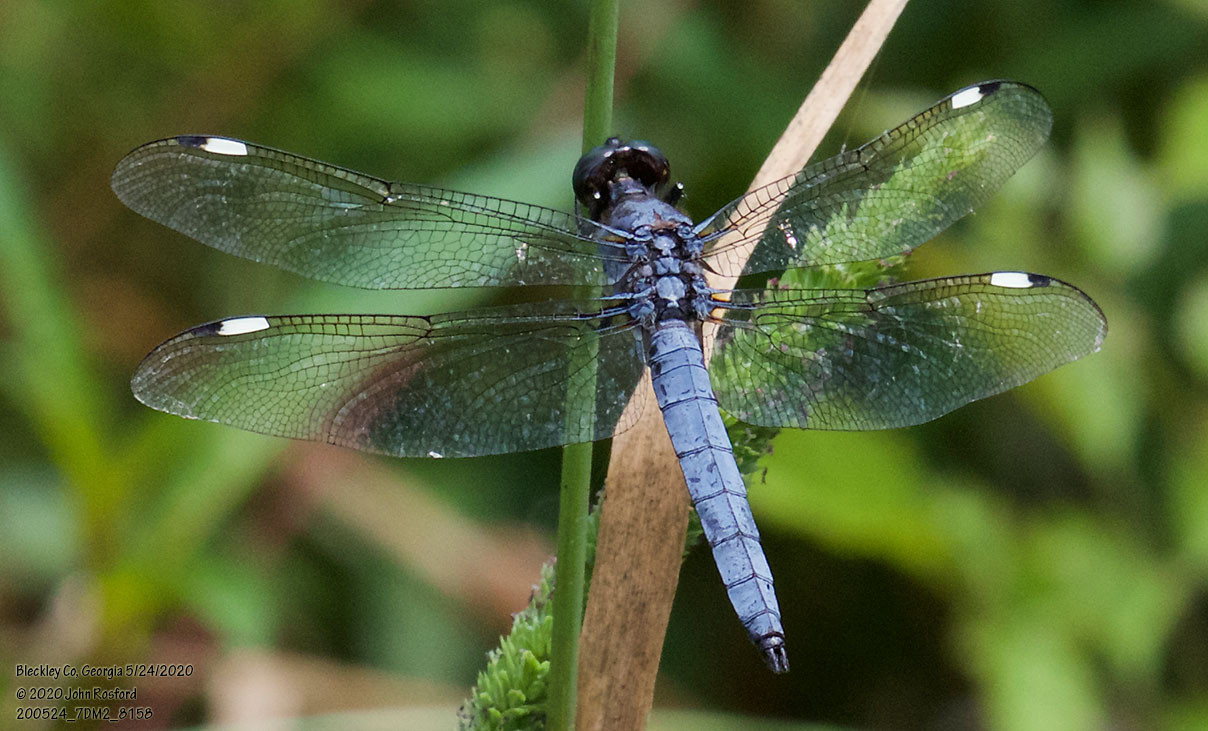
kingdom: Animalia
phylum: Arthropoda
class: Insecta
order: Odonata
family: Libellulidae
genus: Libellula
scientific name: Libellula cyanea
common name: Spangled skimmer
